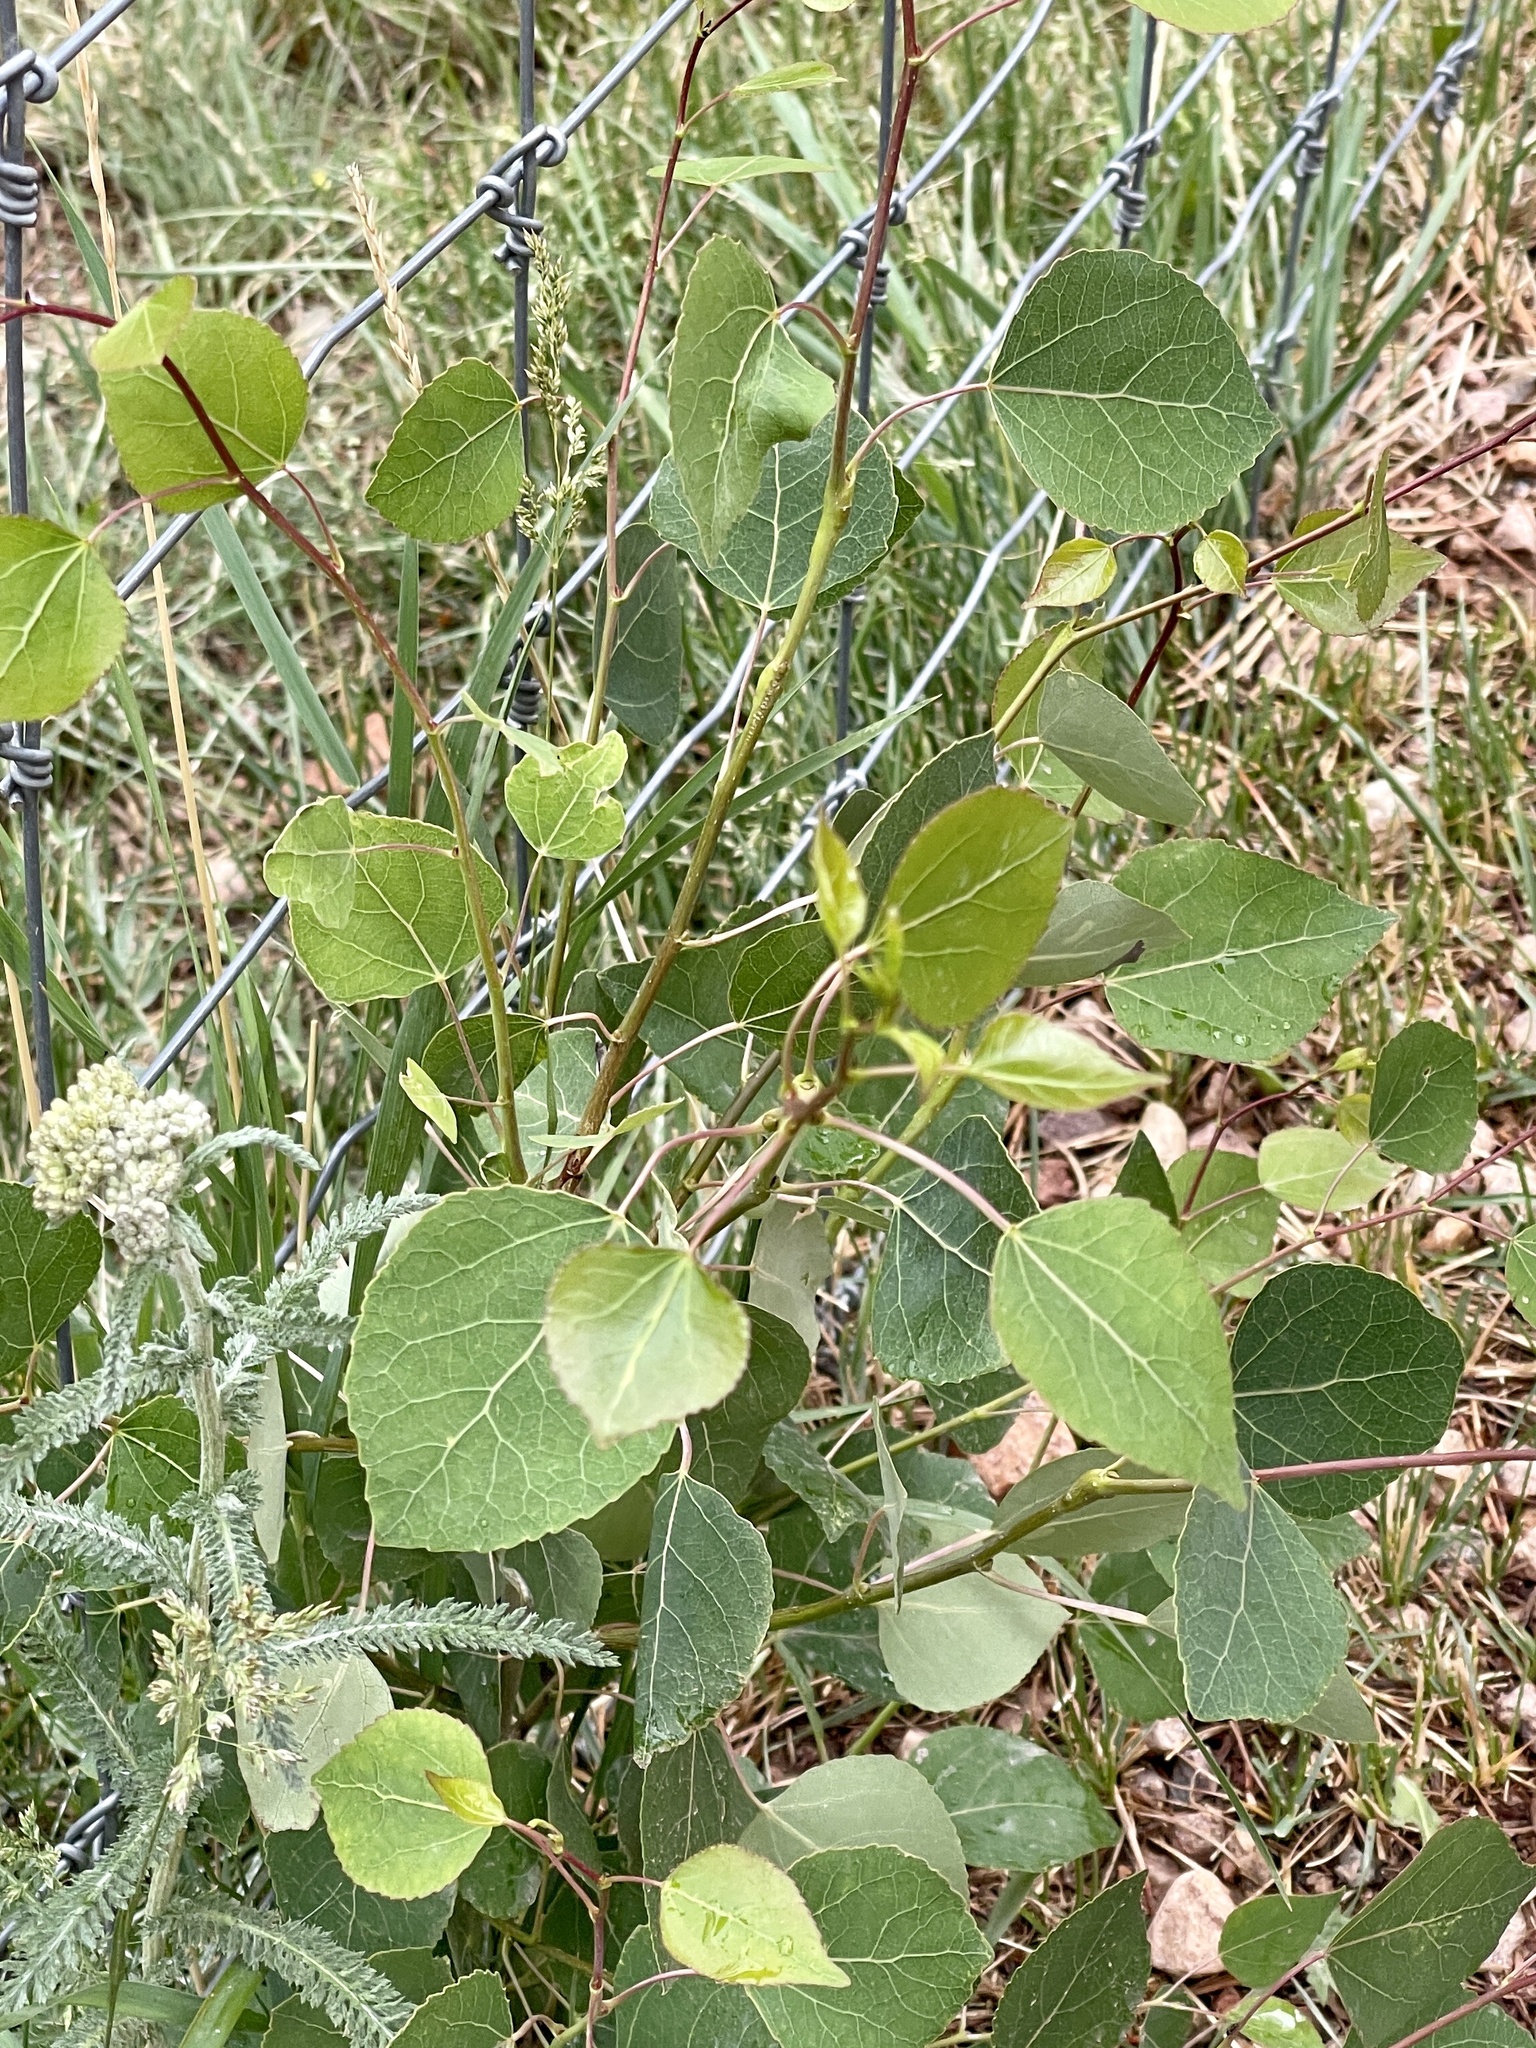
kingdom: Plantae
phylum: Tracheophyta
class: Magnoliopsida
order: Malpighiales
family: Salicaceae
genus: Populus
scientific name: Populus tremuloides
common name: Quaking aspen
